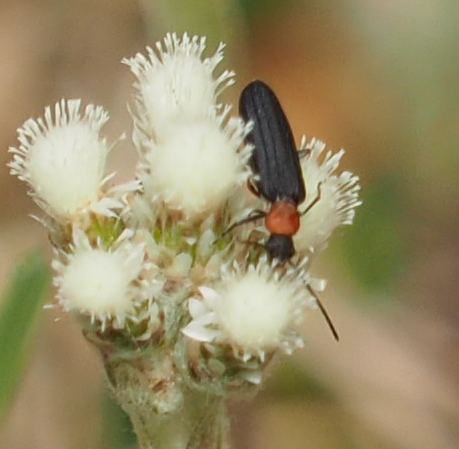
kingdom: Animalia
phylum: Arthropoda
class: Insecta
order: Coleoptera
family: Oedemeridae
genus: Ischnomera
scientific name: Ischnomera
